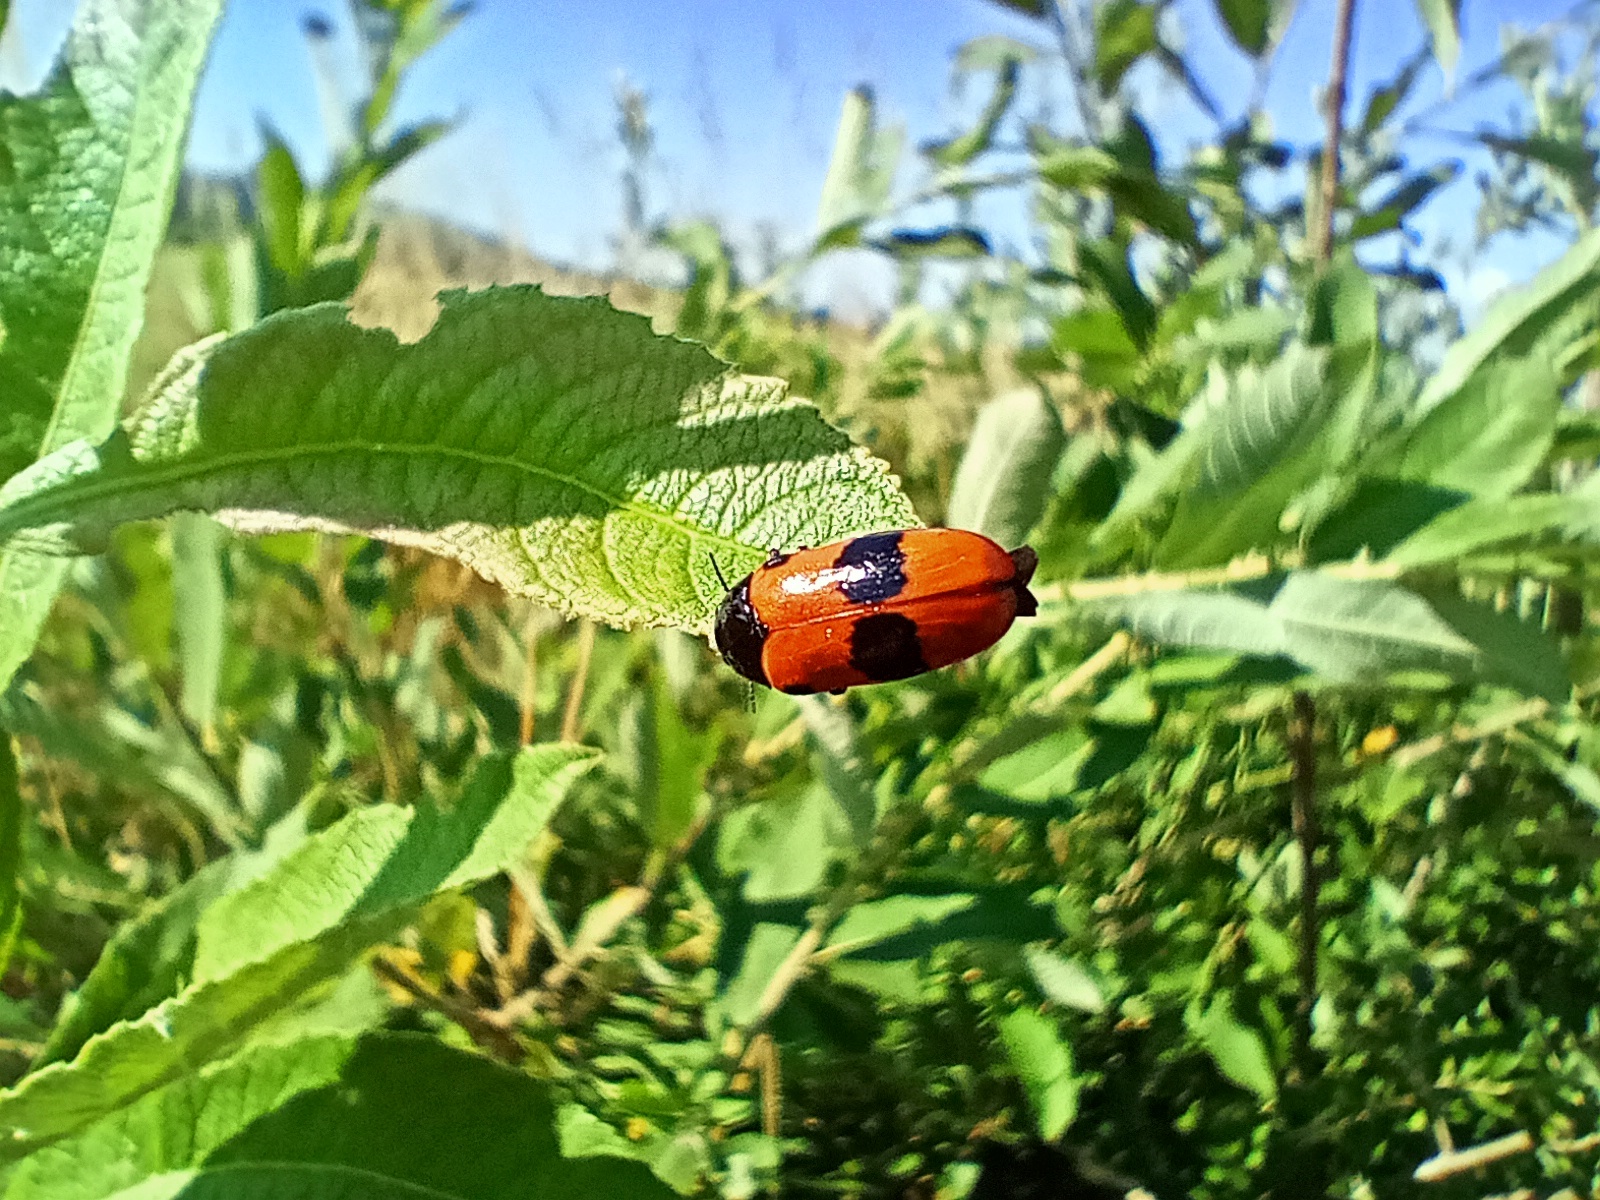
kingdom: Animalia
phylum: Arthropoda
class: Insecta
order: Coleoptera
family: Chrysomelidae
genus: Clytra
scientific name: Clytra laeviuscula
